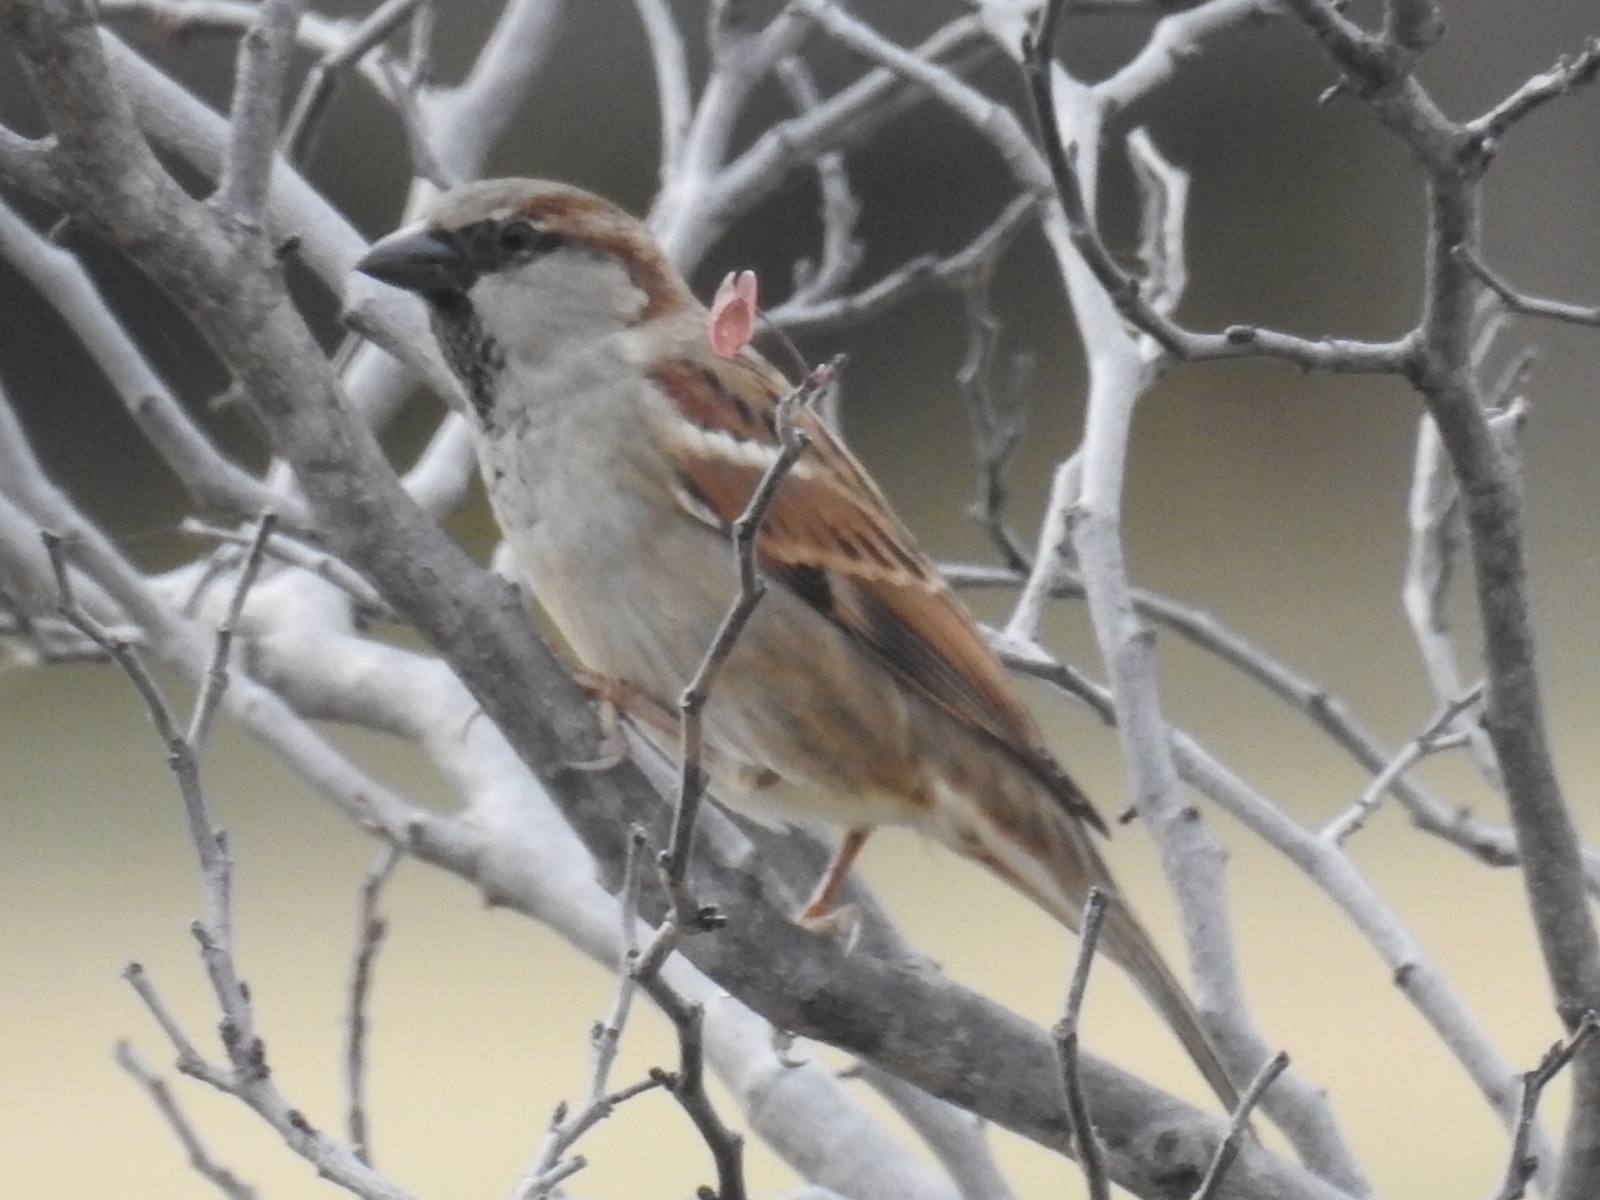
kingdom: Animalia
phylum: Chordata
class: Aves
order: Passeriformes
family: Passeridae
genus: Passer
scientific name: Passer domesticus
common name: House sparrow
